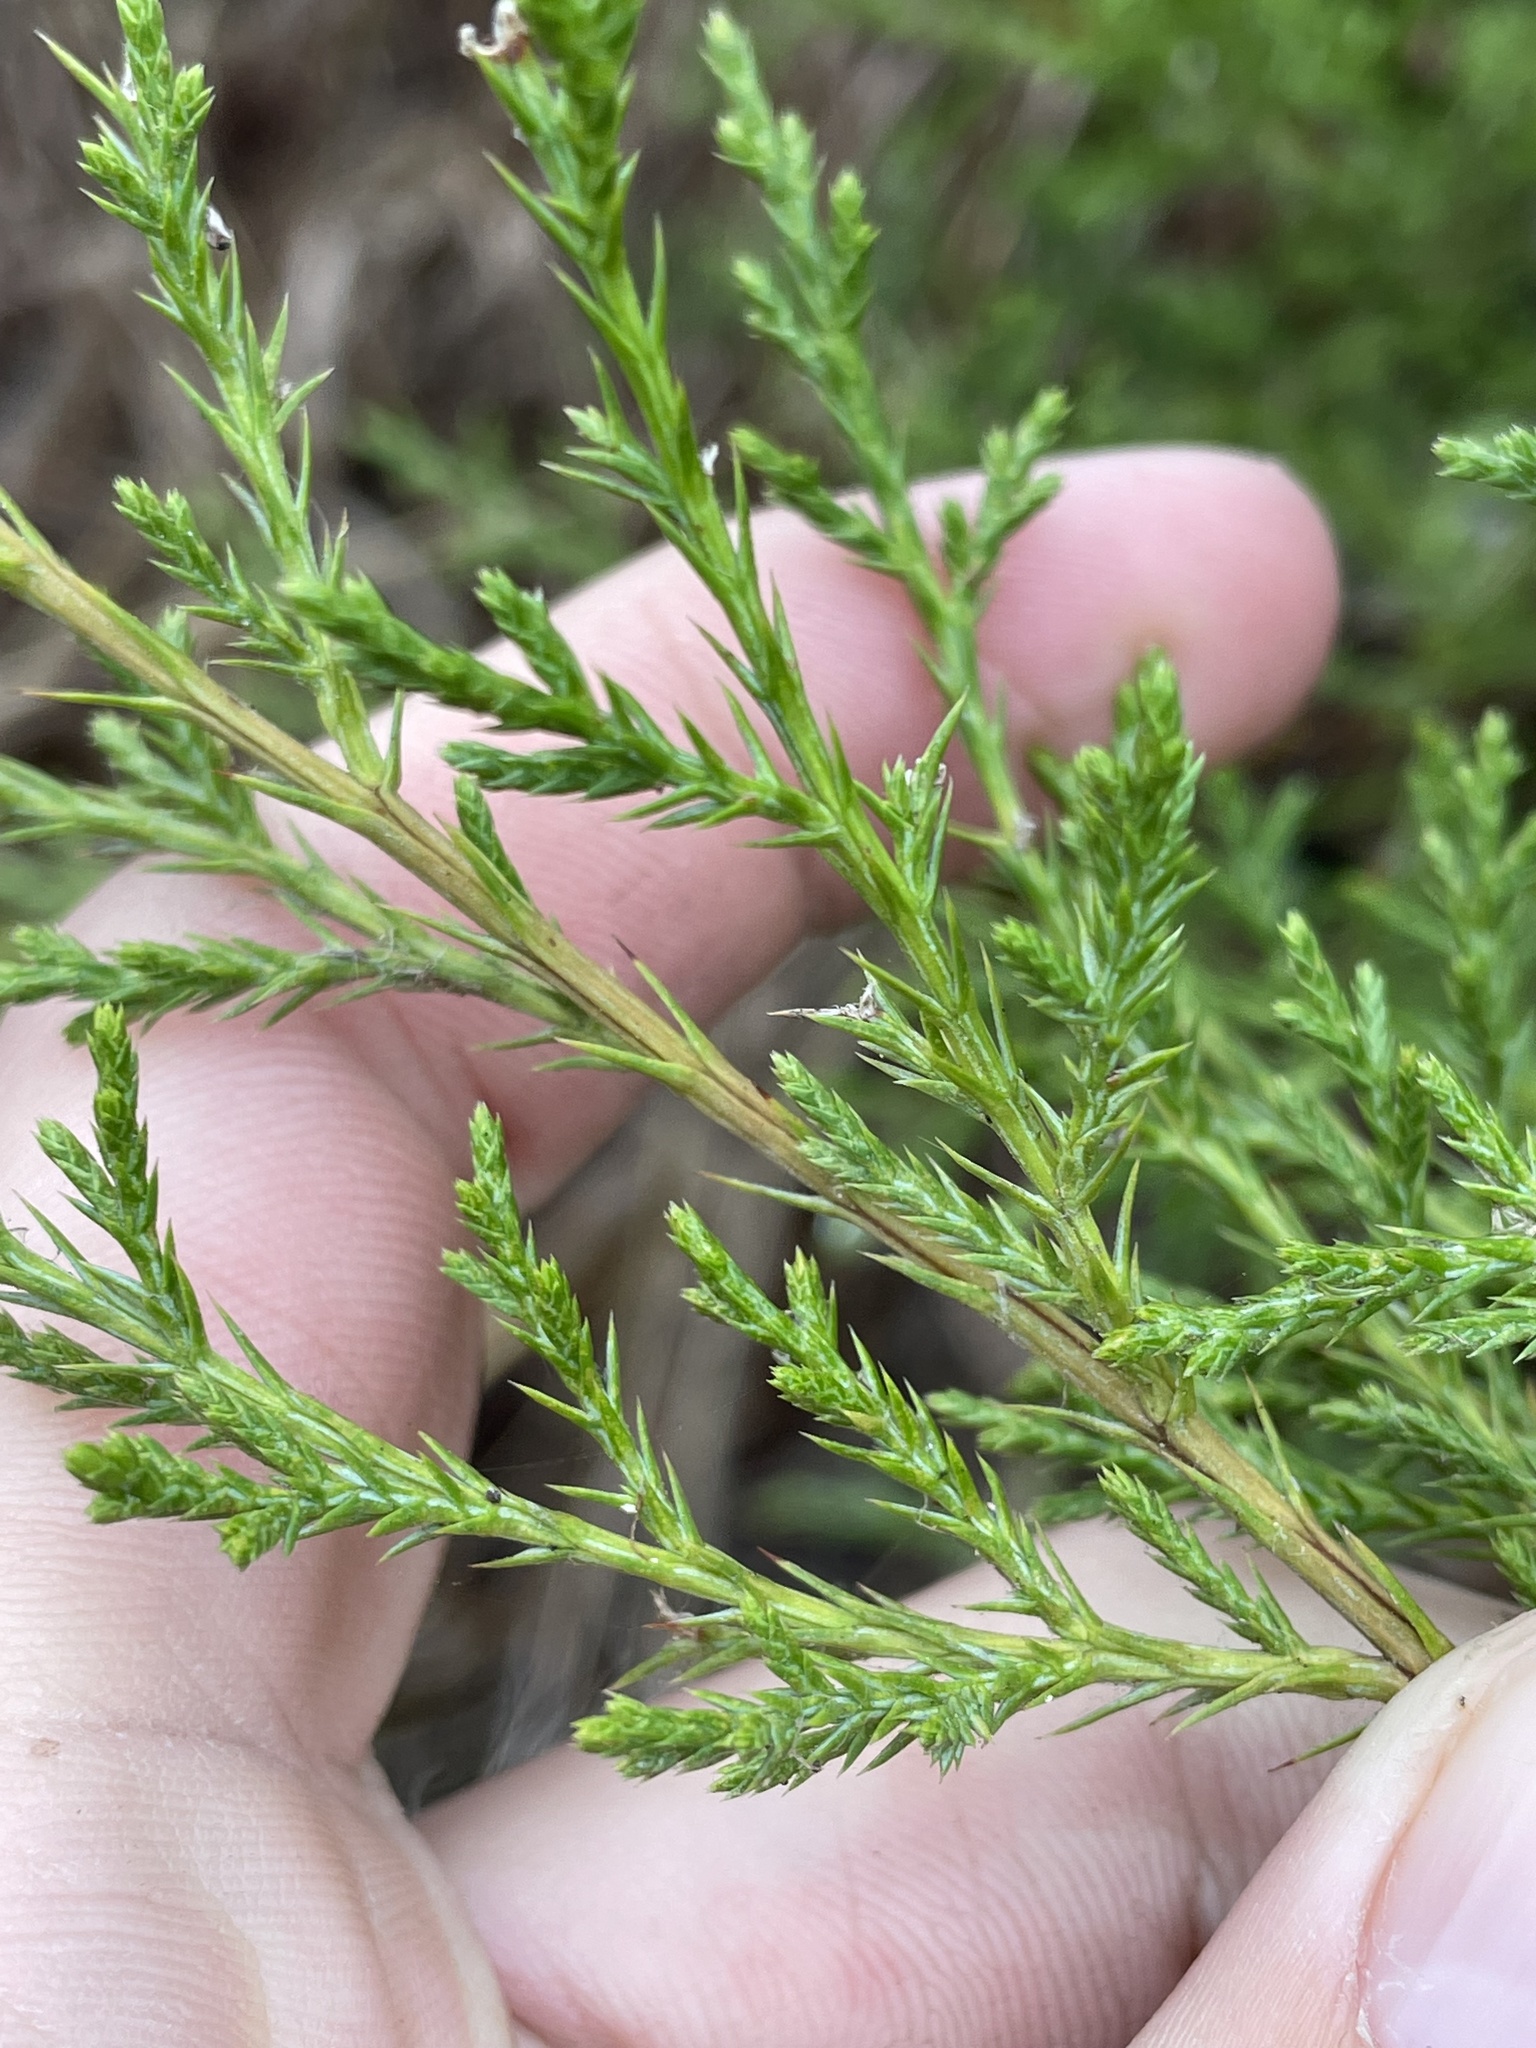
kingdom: Plantae
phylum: Tracheophyta
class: Pinopsida
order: Pinales
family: Cupressaceae
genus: Juniperus
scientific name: Juniperus virginiana
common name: Red juniper
